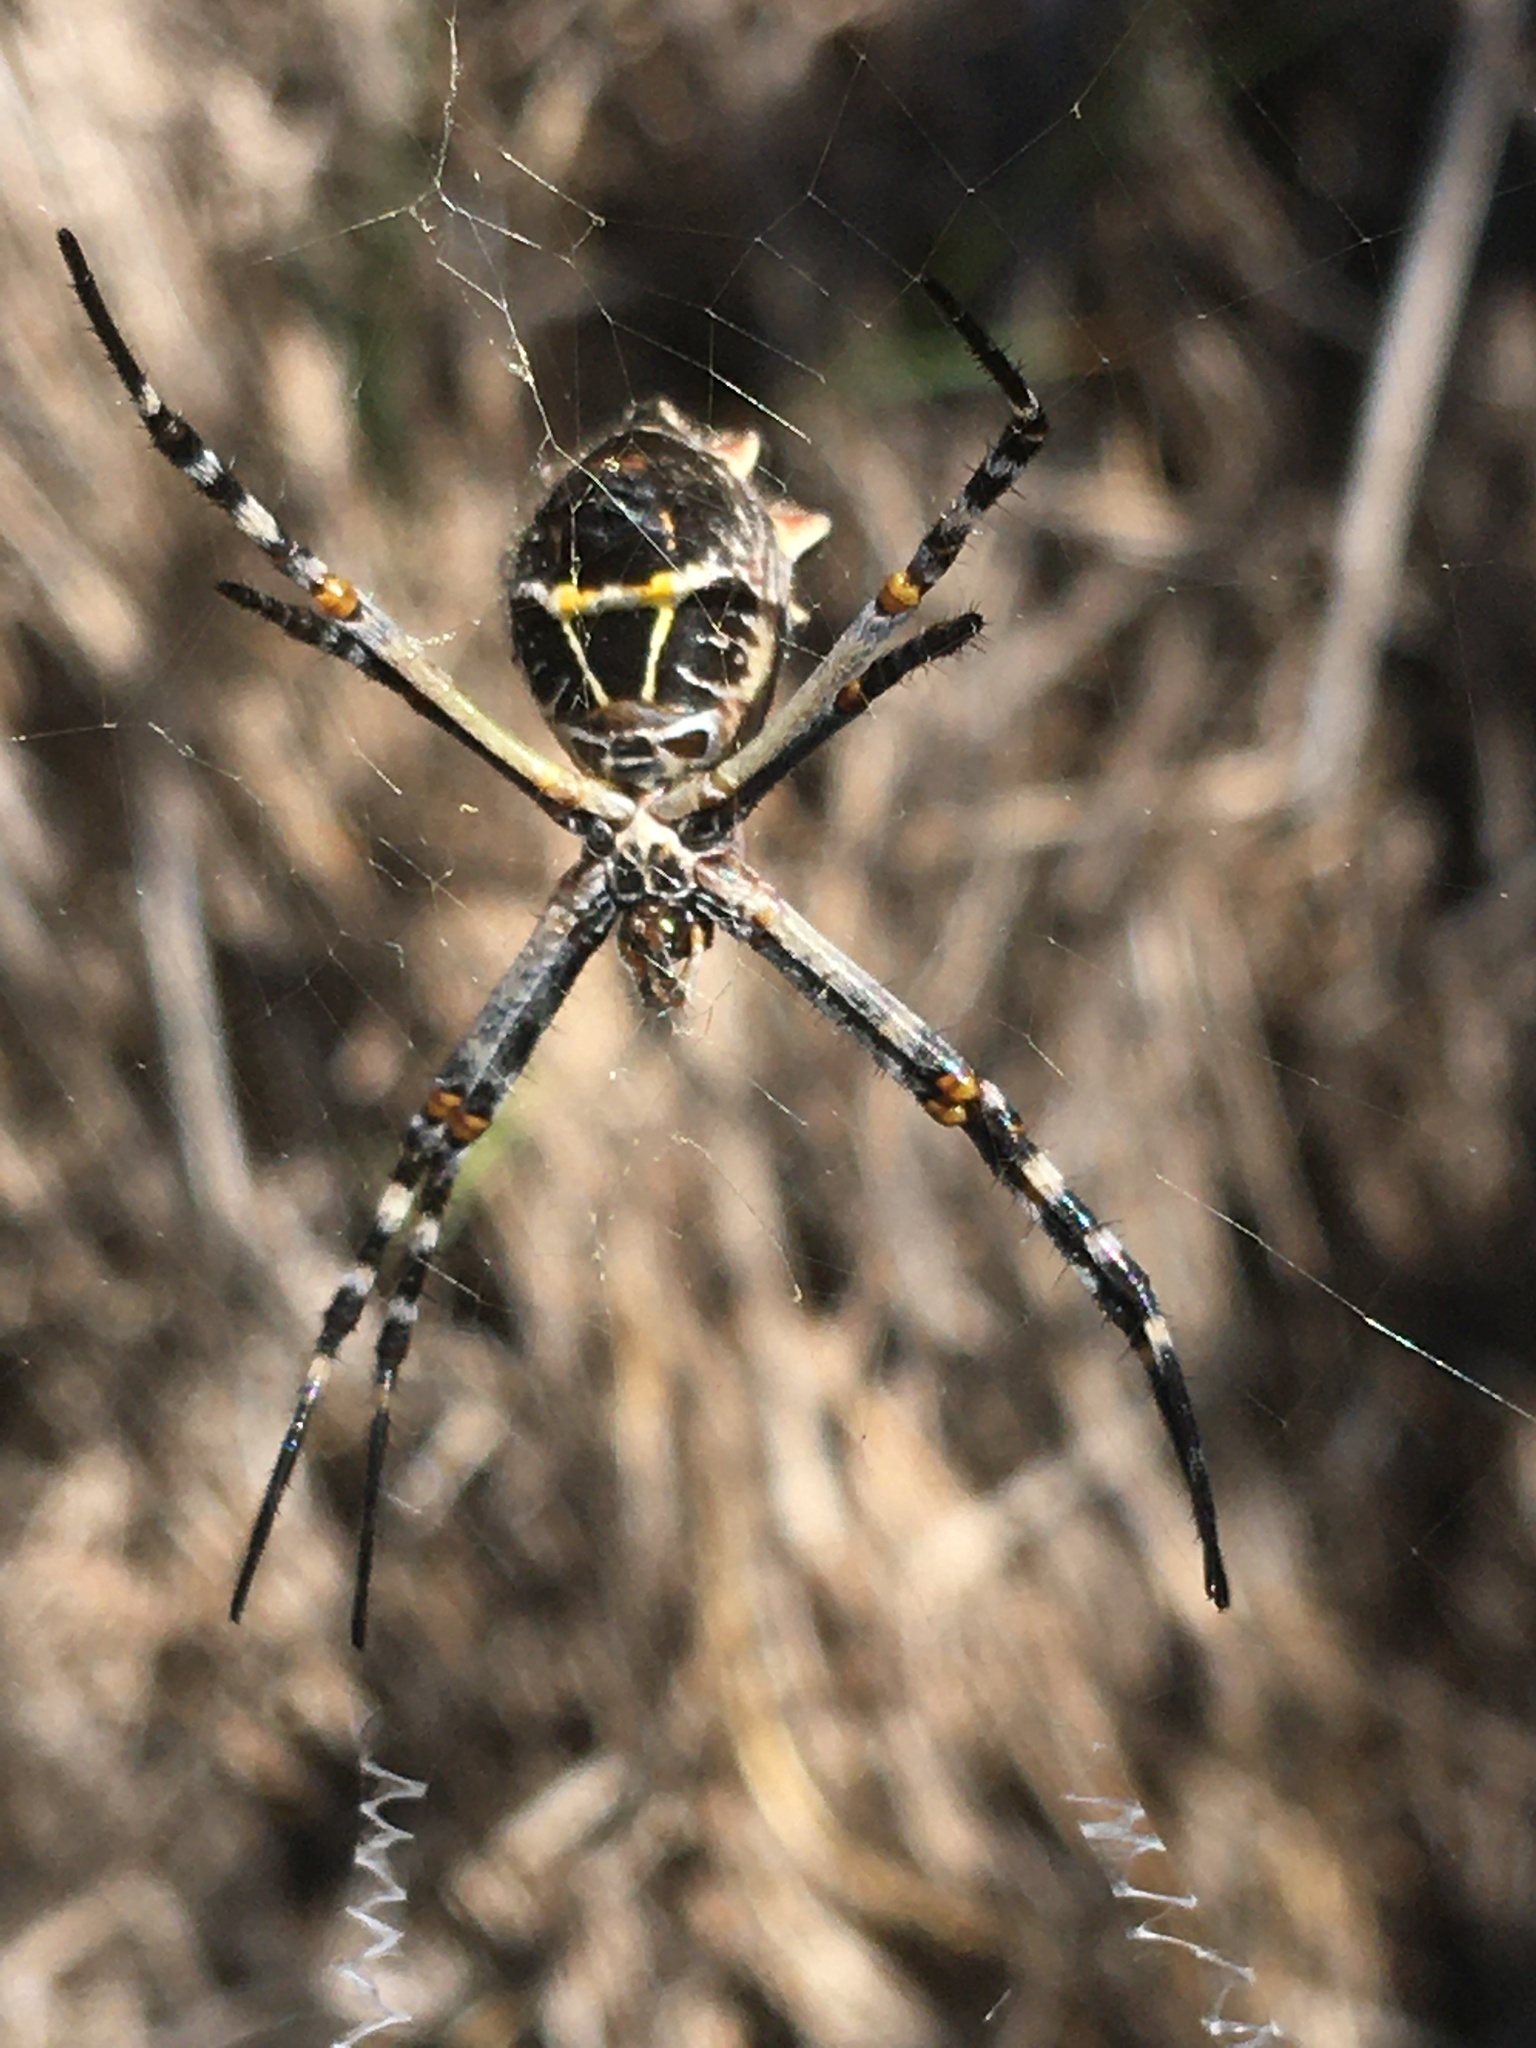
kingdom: Animalia
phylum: Arthropoda
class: Arachnida
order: Araneae
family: Araneidae
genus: Argiope
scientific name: Argiope argentata
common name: Orb weavers
